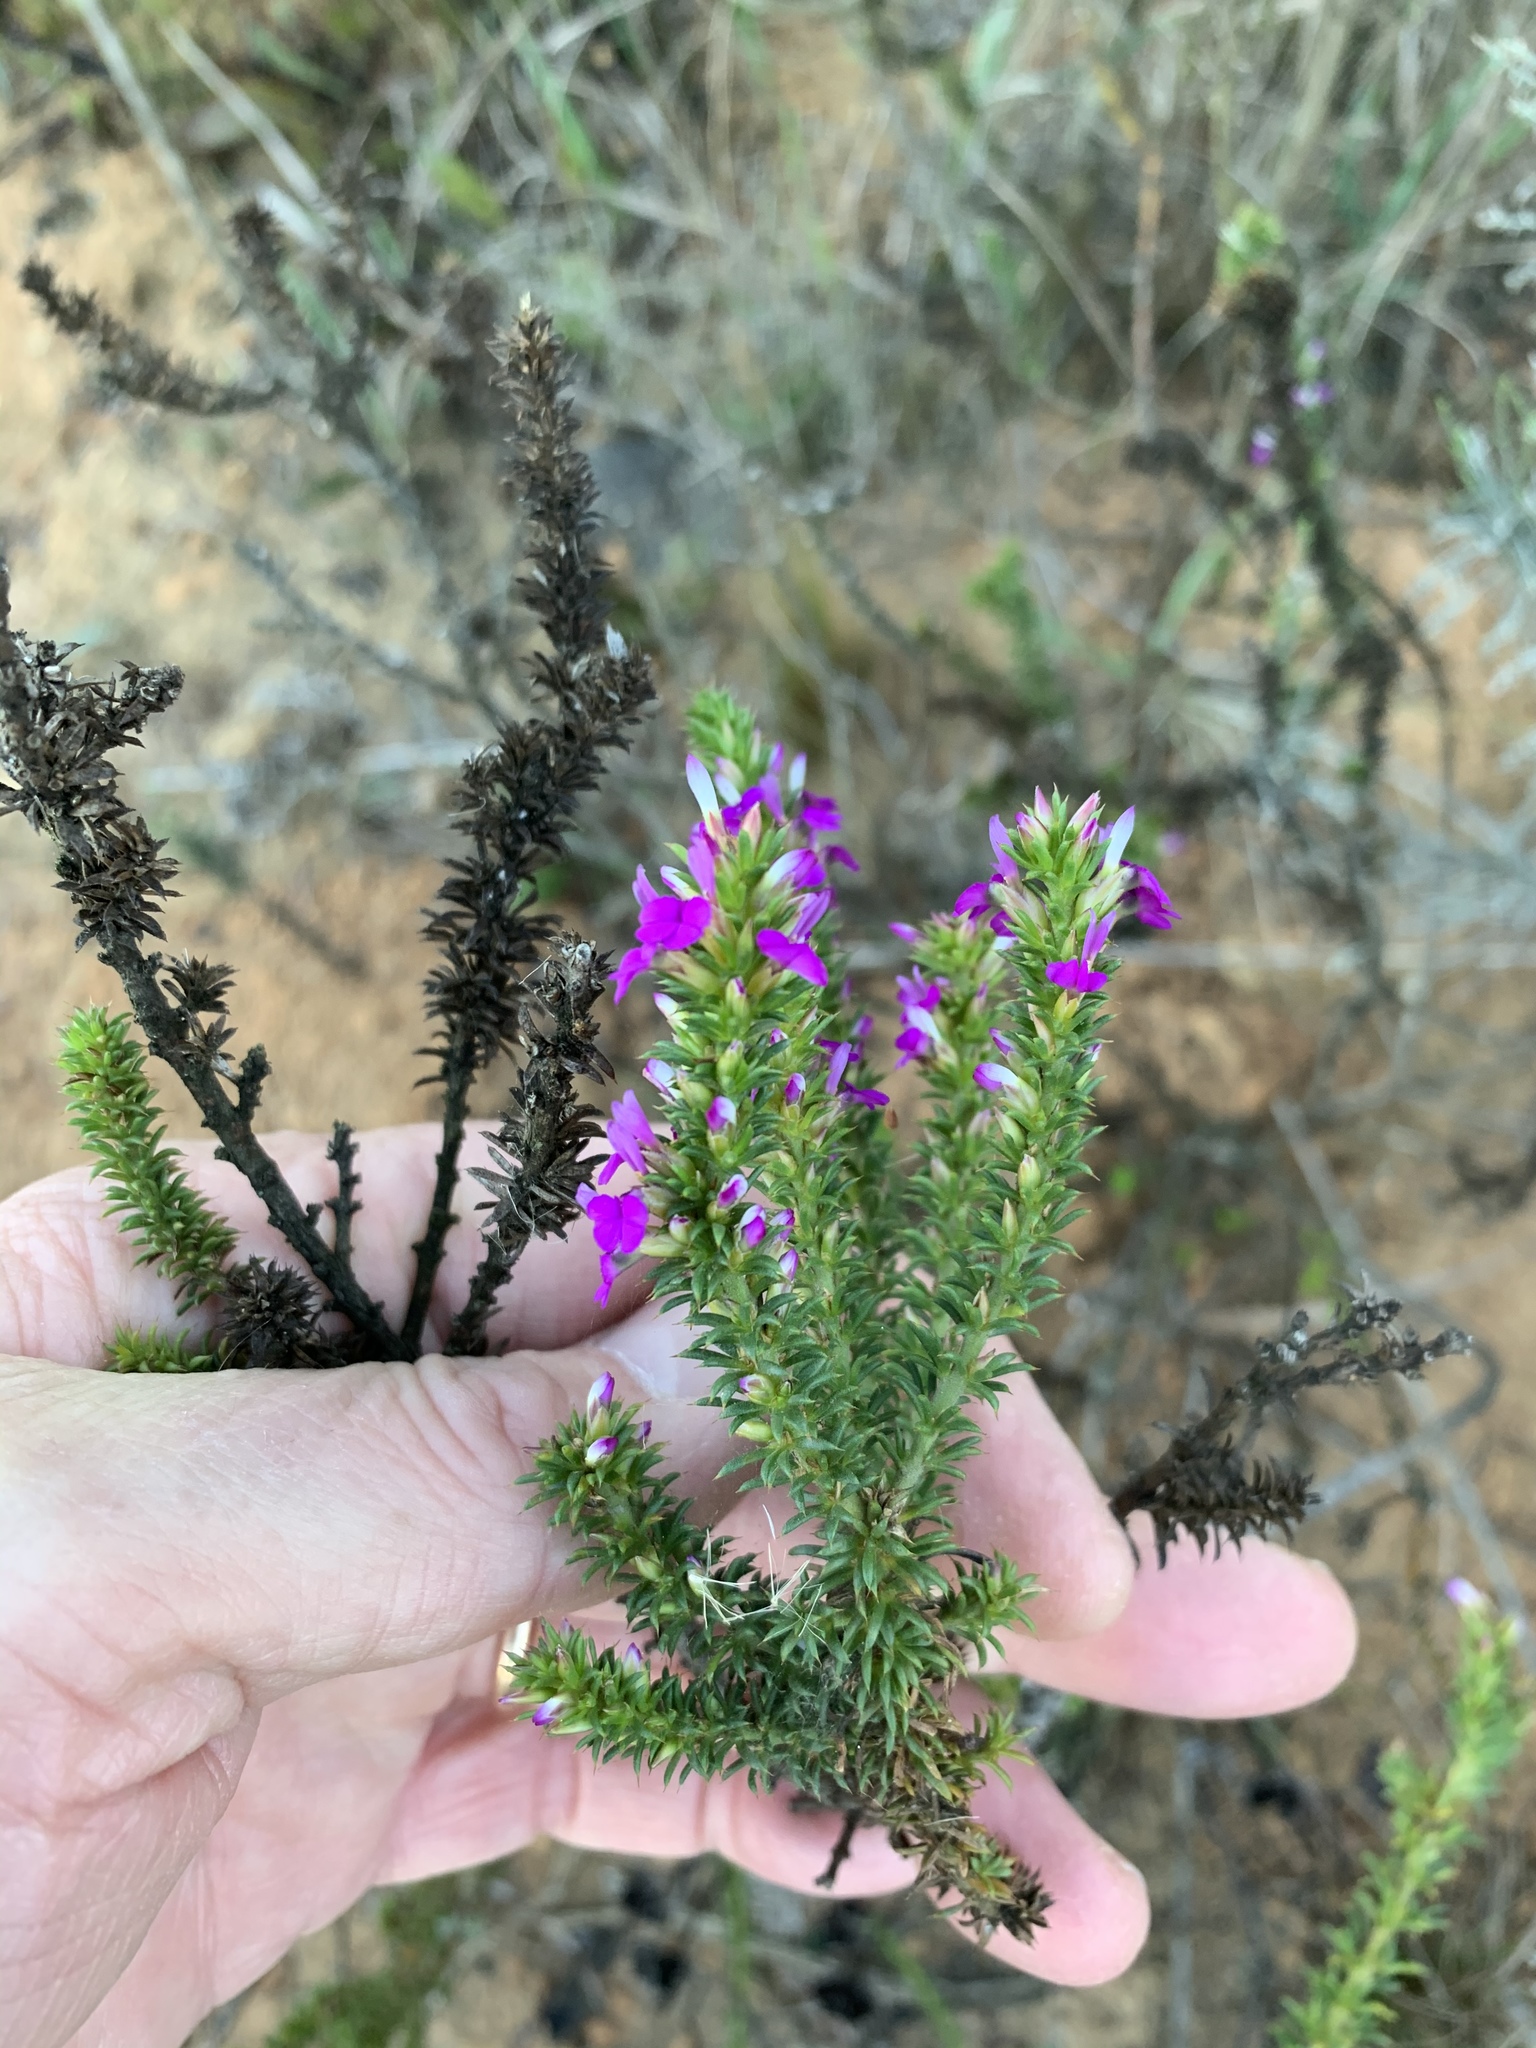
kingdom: Plantae
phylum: Tracheophyta
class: Magnoliopsida
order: Fabales
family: Polygalaceae
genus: Muraltia
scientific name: Muraltia heisteria
